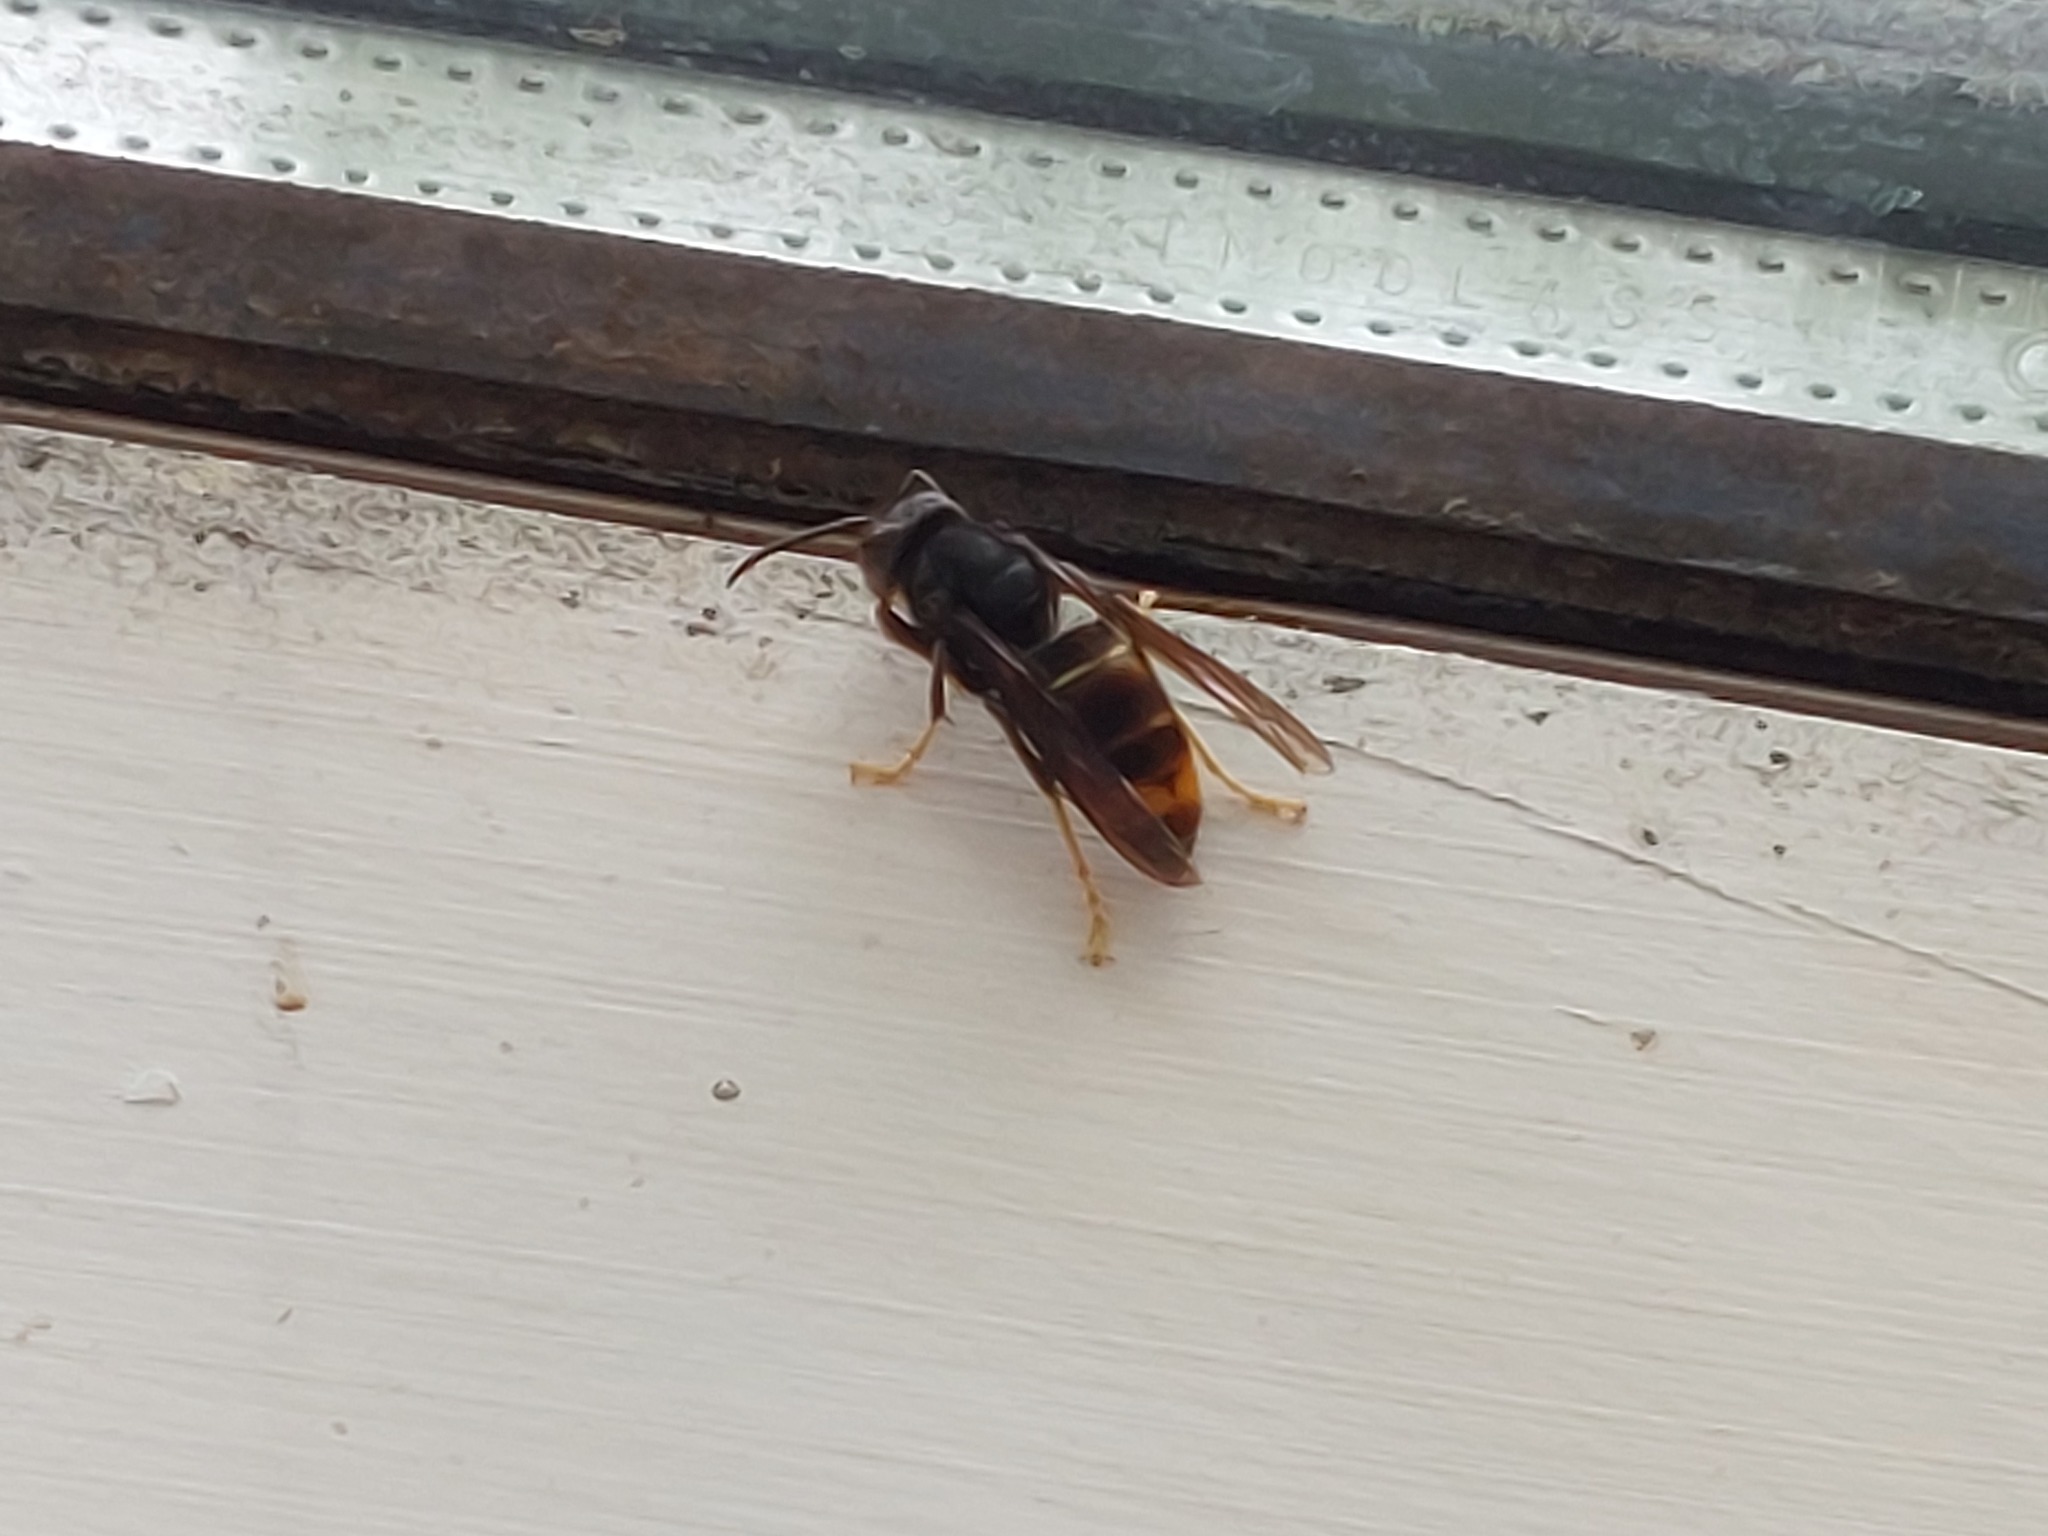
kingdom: Animalia
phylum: Arthropoda
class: Insecta
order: Hymenoptera
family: Vespidae
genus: Vespa
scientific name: Vespa velutina
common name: Asian hornet
